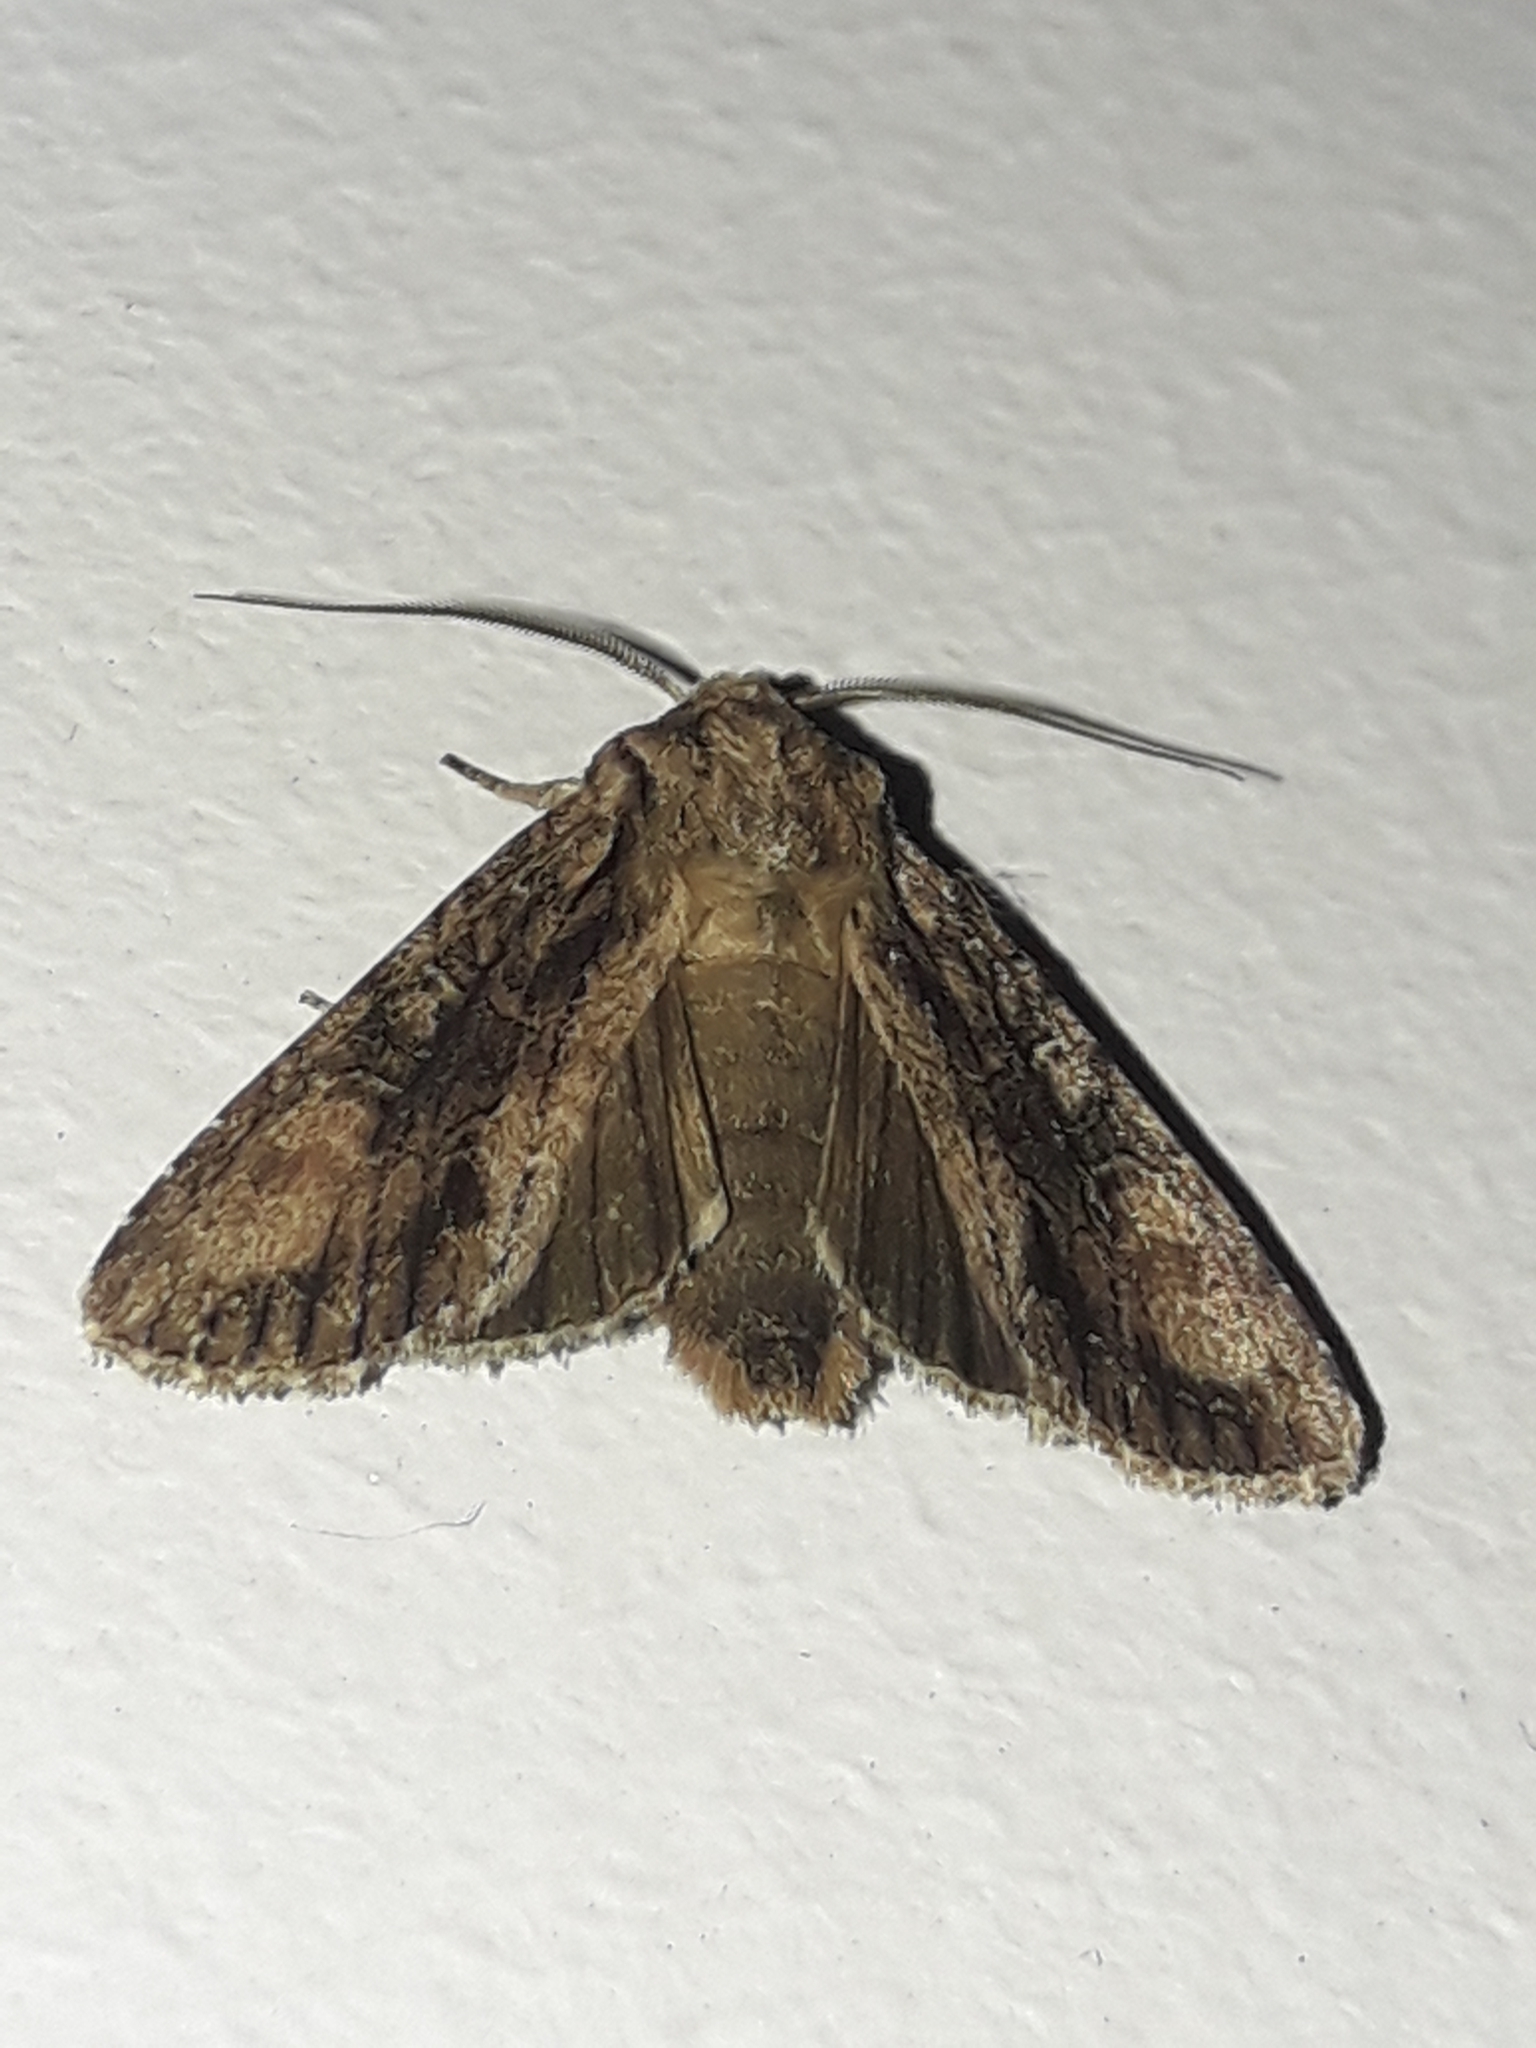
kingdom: Animalia
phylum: Arthropoda
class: Insecta
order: Lepidoptera
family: Noctuidae
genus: Ichneutica
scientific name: Ichneutica mutans
